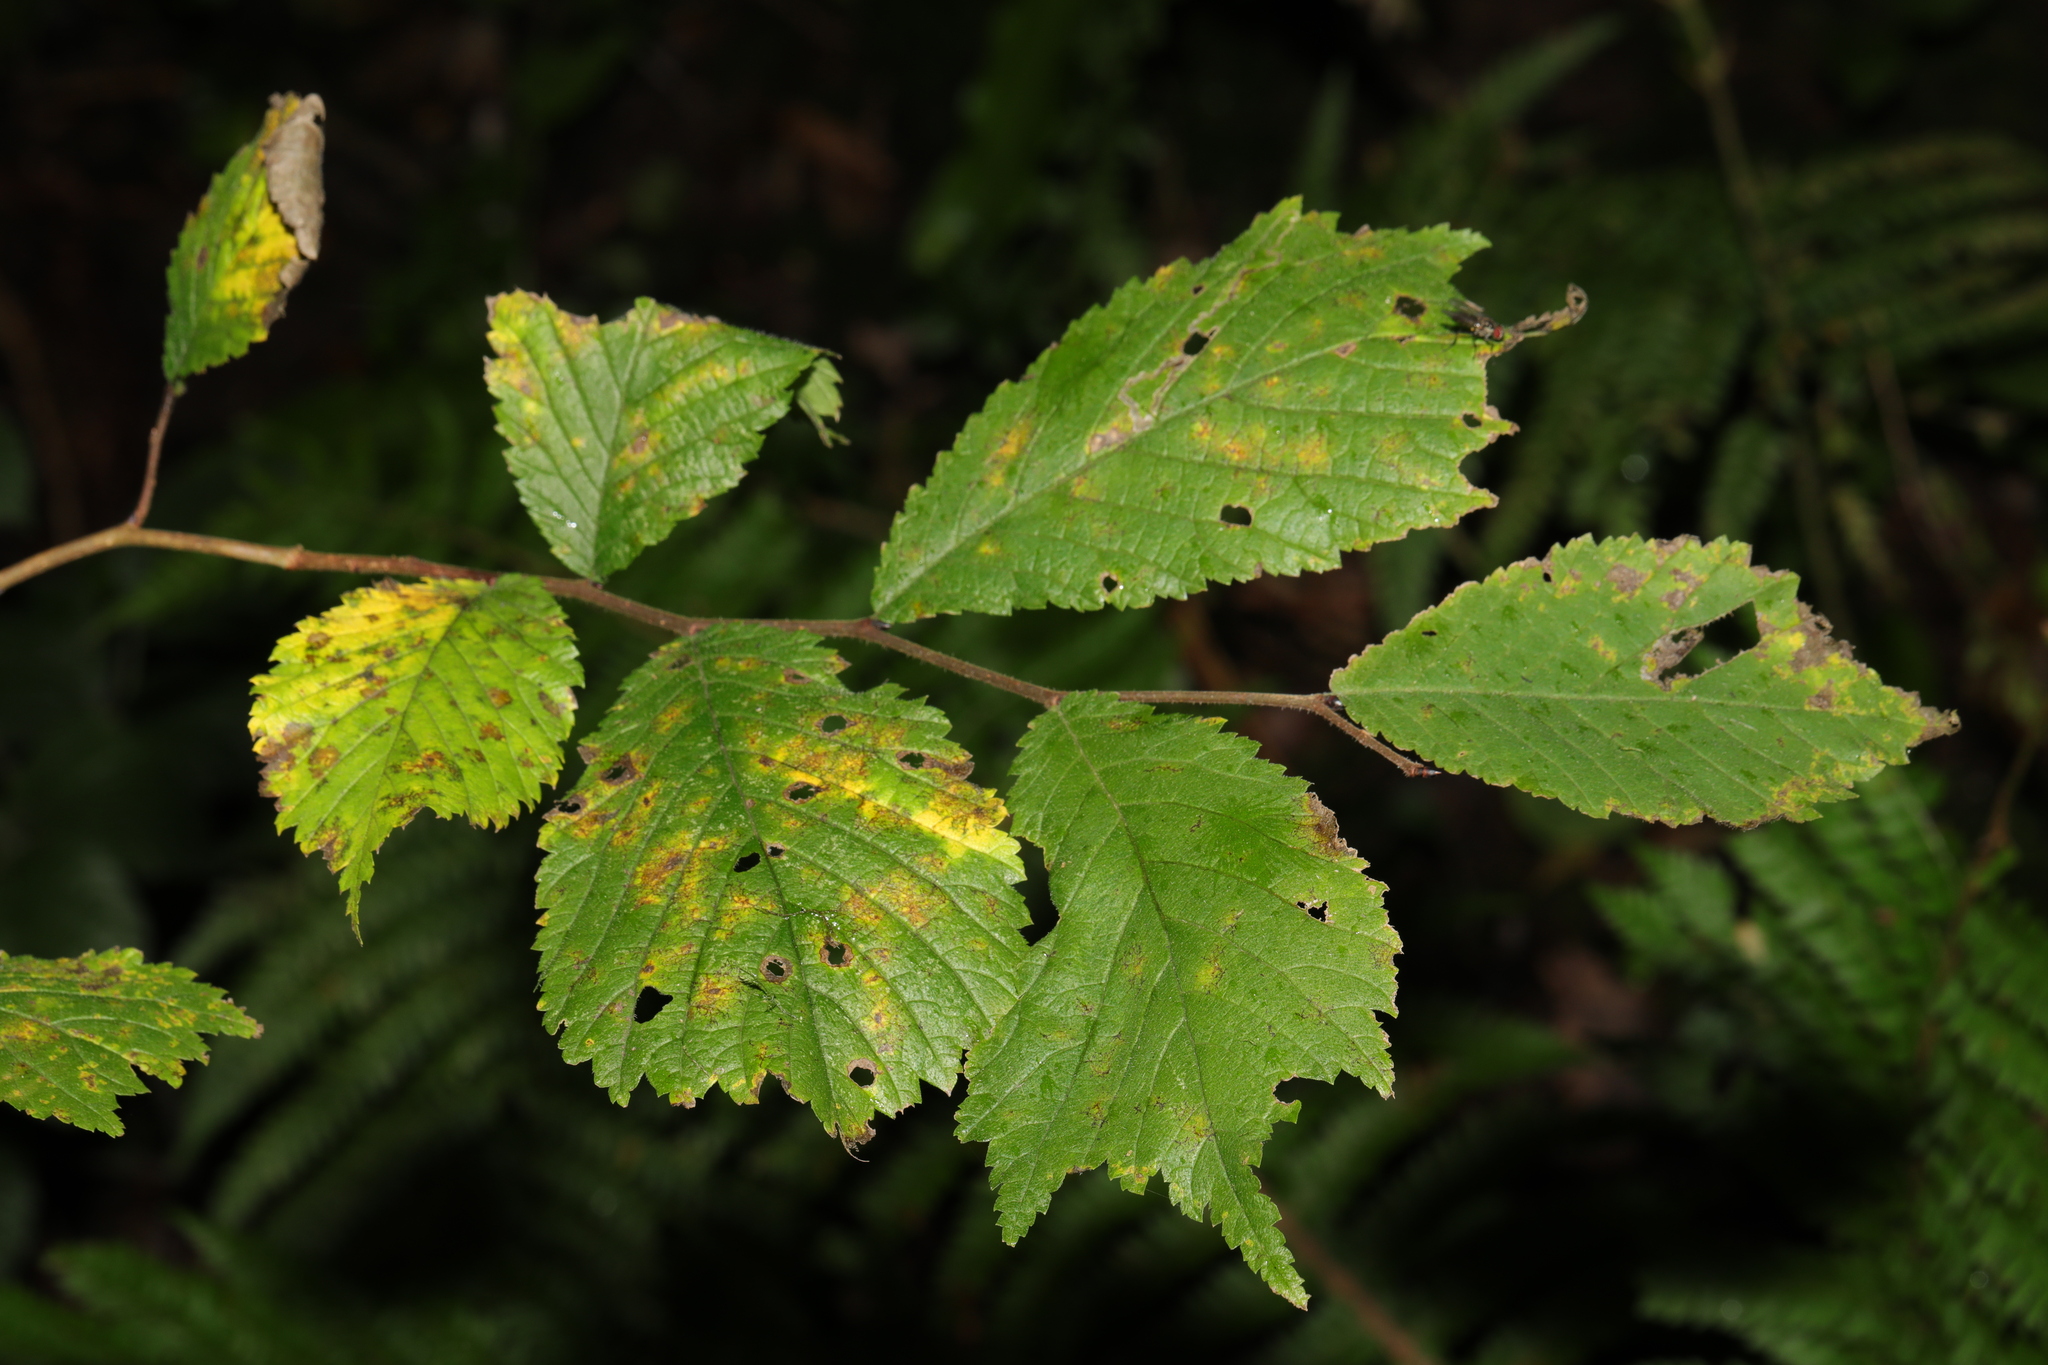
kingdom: Plantae
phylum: Tracheophyta
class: Magnoliopsida
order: Rosales
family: Ulmaceae
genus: Ulmus
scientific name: Ulmus glabra
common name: Wych elm
